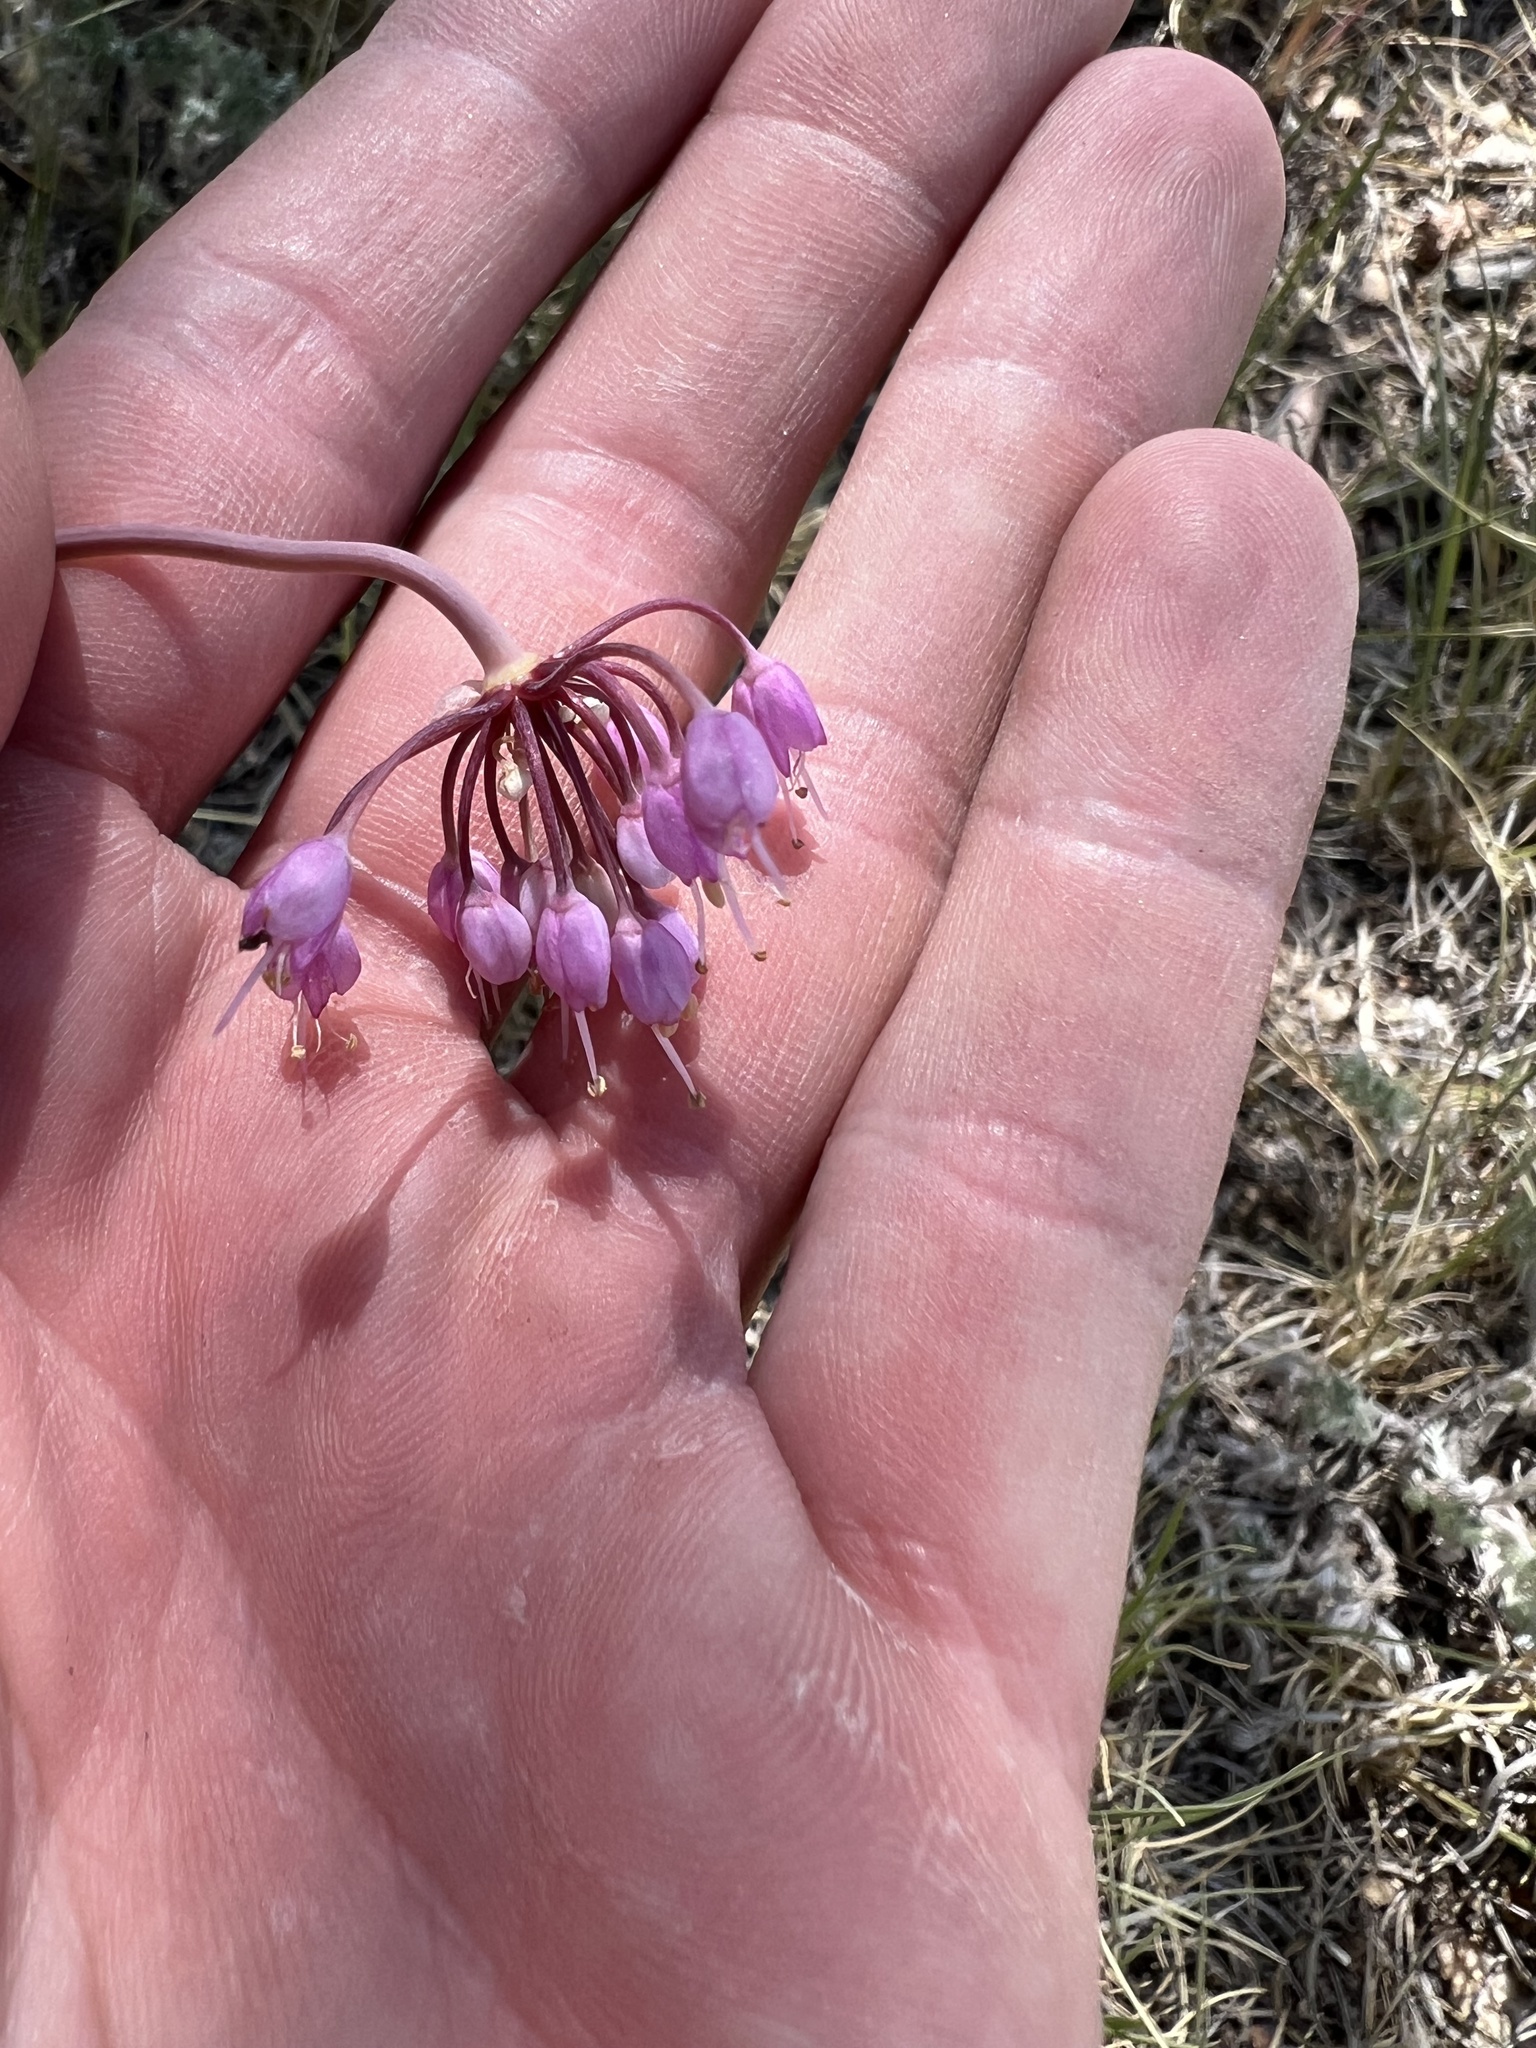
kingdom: Plantae
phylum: Tracheophyta
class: Liliopsida
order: Asparagales
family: Amaryllidaceae
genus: Allium
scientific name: Allium cernuum
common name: Nodding onion
